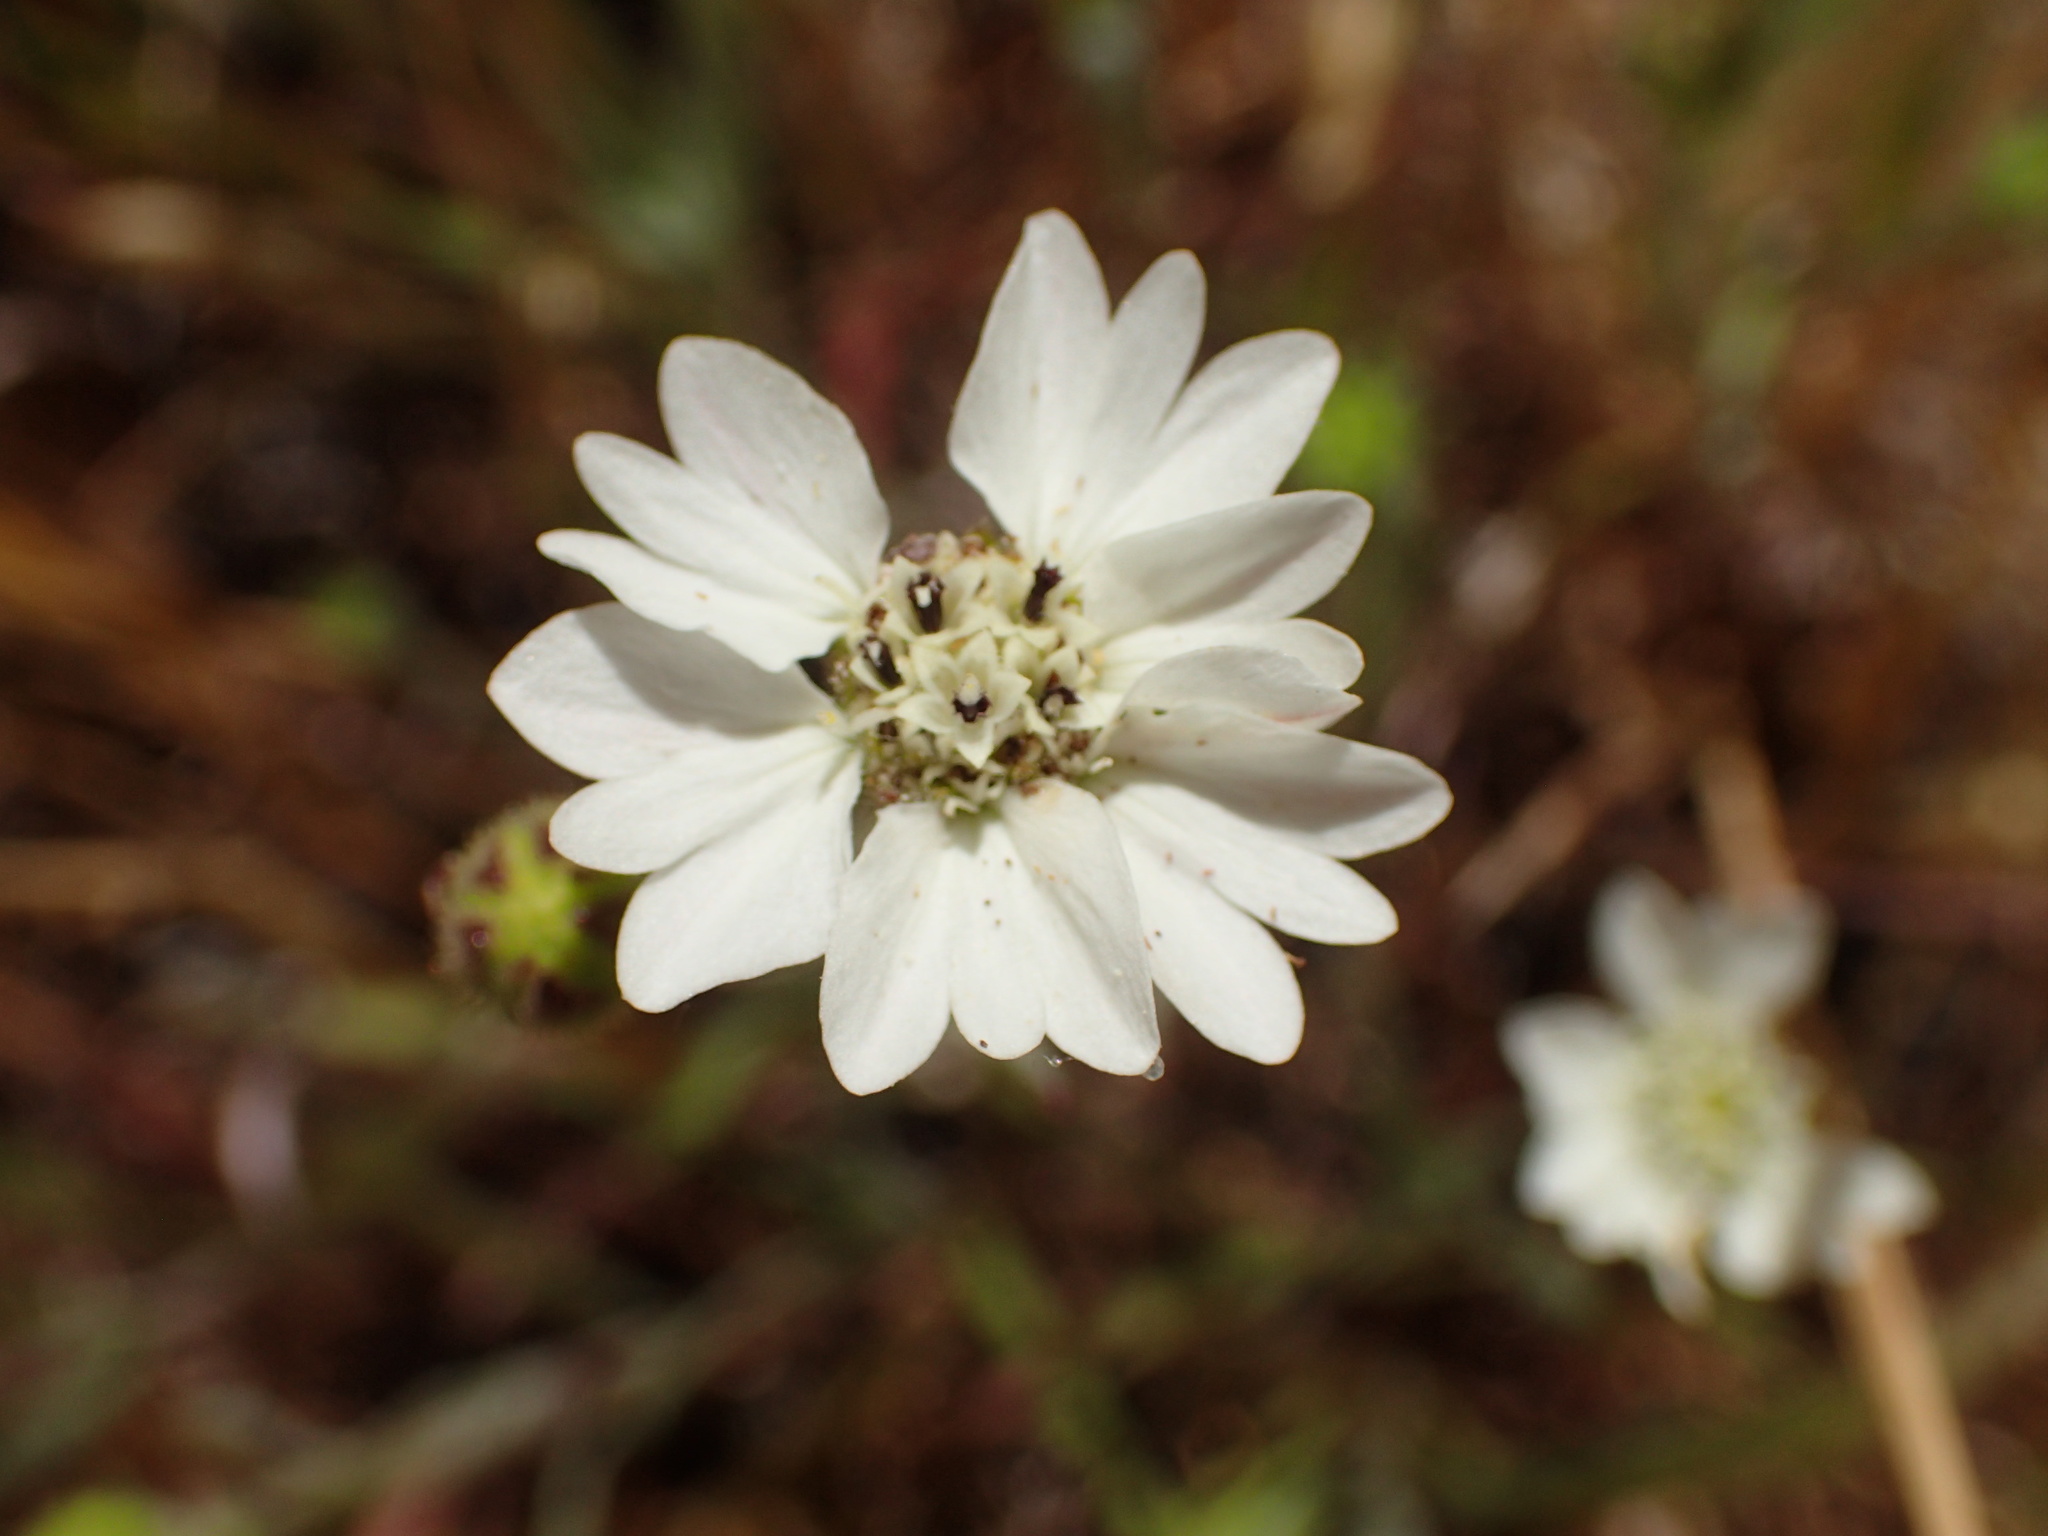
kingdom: Plantae
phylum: Tracheophyta
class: Magnoliopsida
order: Asterales
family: Asteraceae
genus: Hemizonia
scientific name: Hemizonia congesta
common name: Hayfield tarweed
